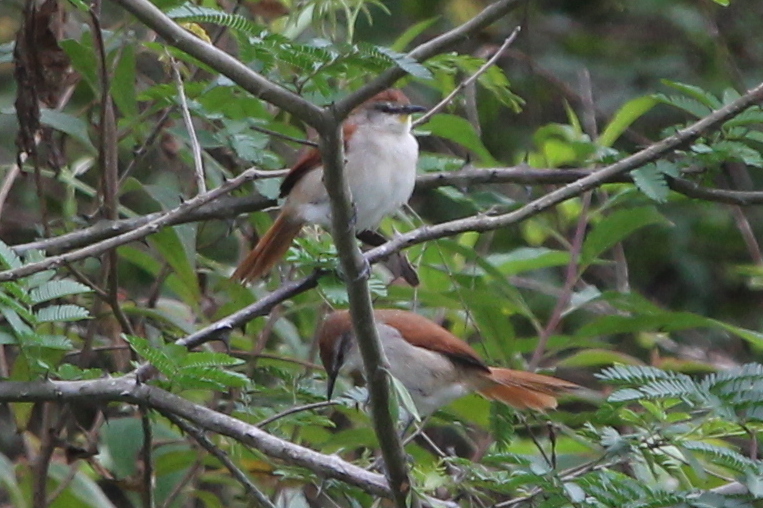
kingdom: Animalia
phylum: Chordata
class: Aves
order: Passeriformes
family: Furnariidae
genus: Certhiaxis
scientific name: Certhiaxis cinnamomeus
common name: Yellow-chinned spinetail
